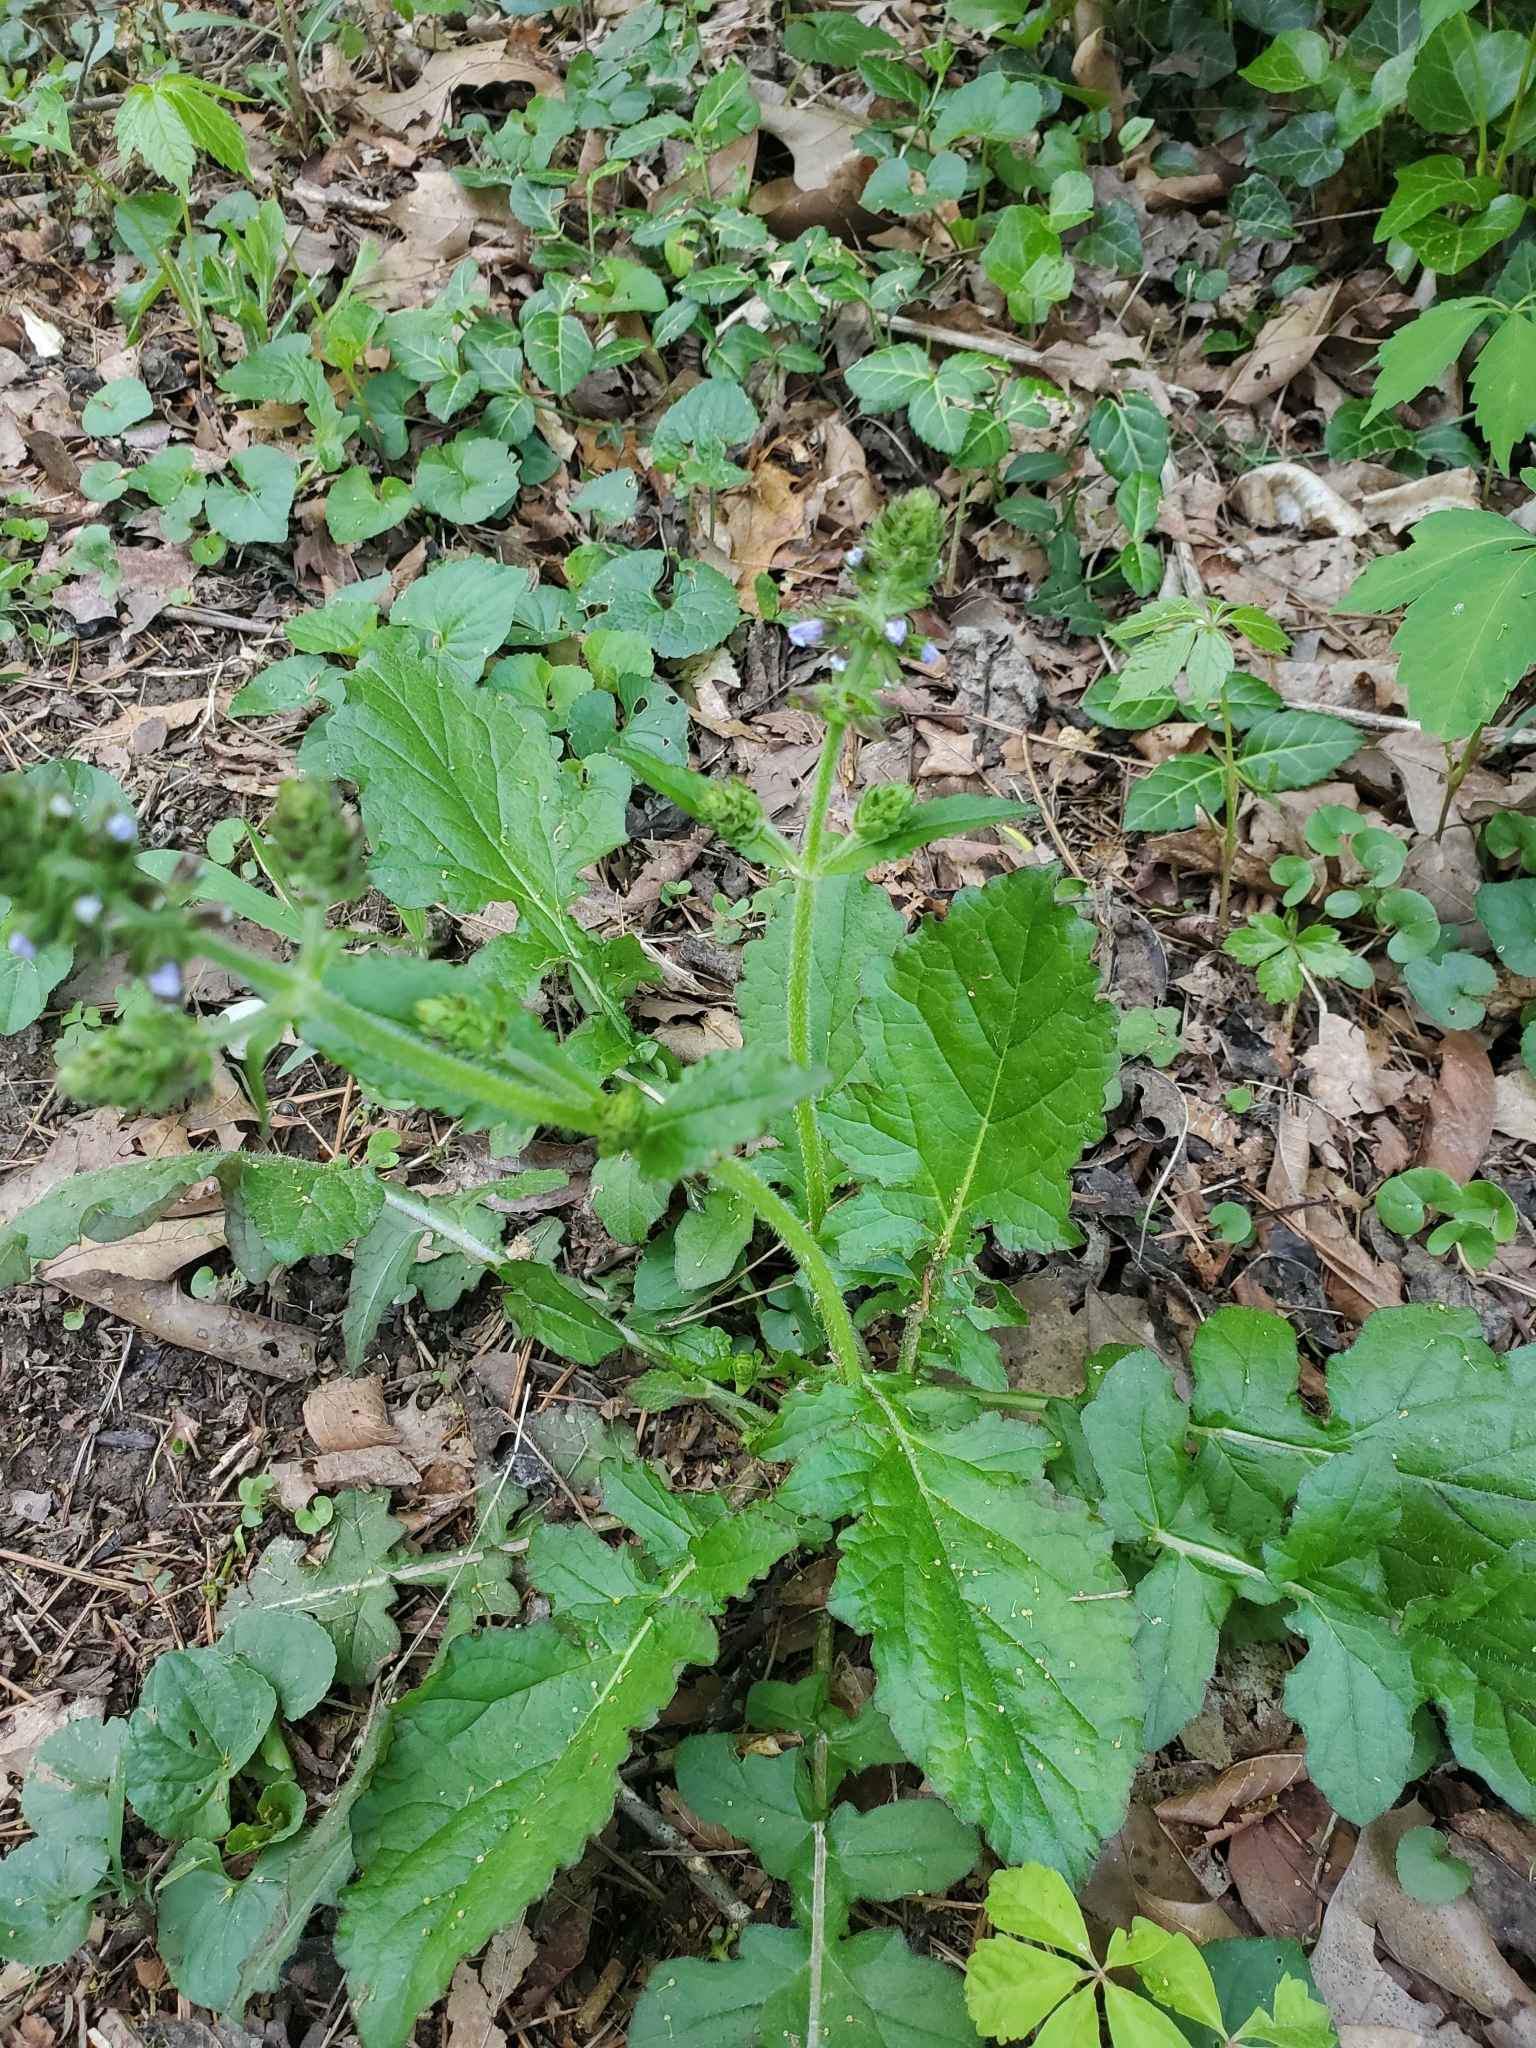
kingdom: Plantae
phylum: Tracheophyta
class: Magnoliopsida
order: Lamiales
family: Lamiaceae
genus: Salvia
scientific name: Salvia lyrata
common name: Cancerweed
